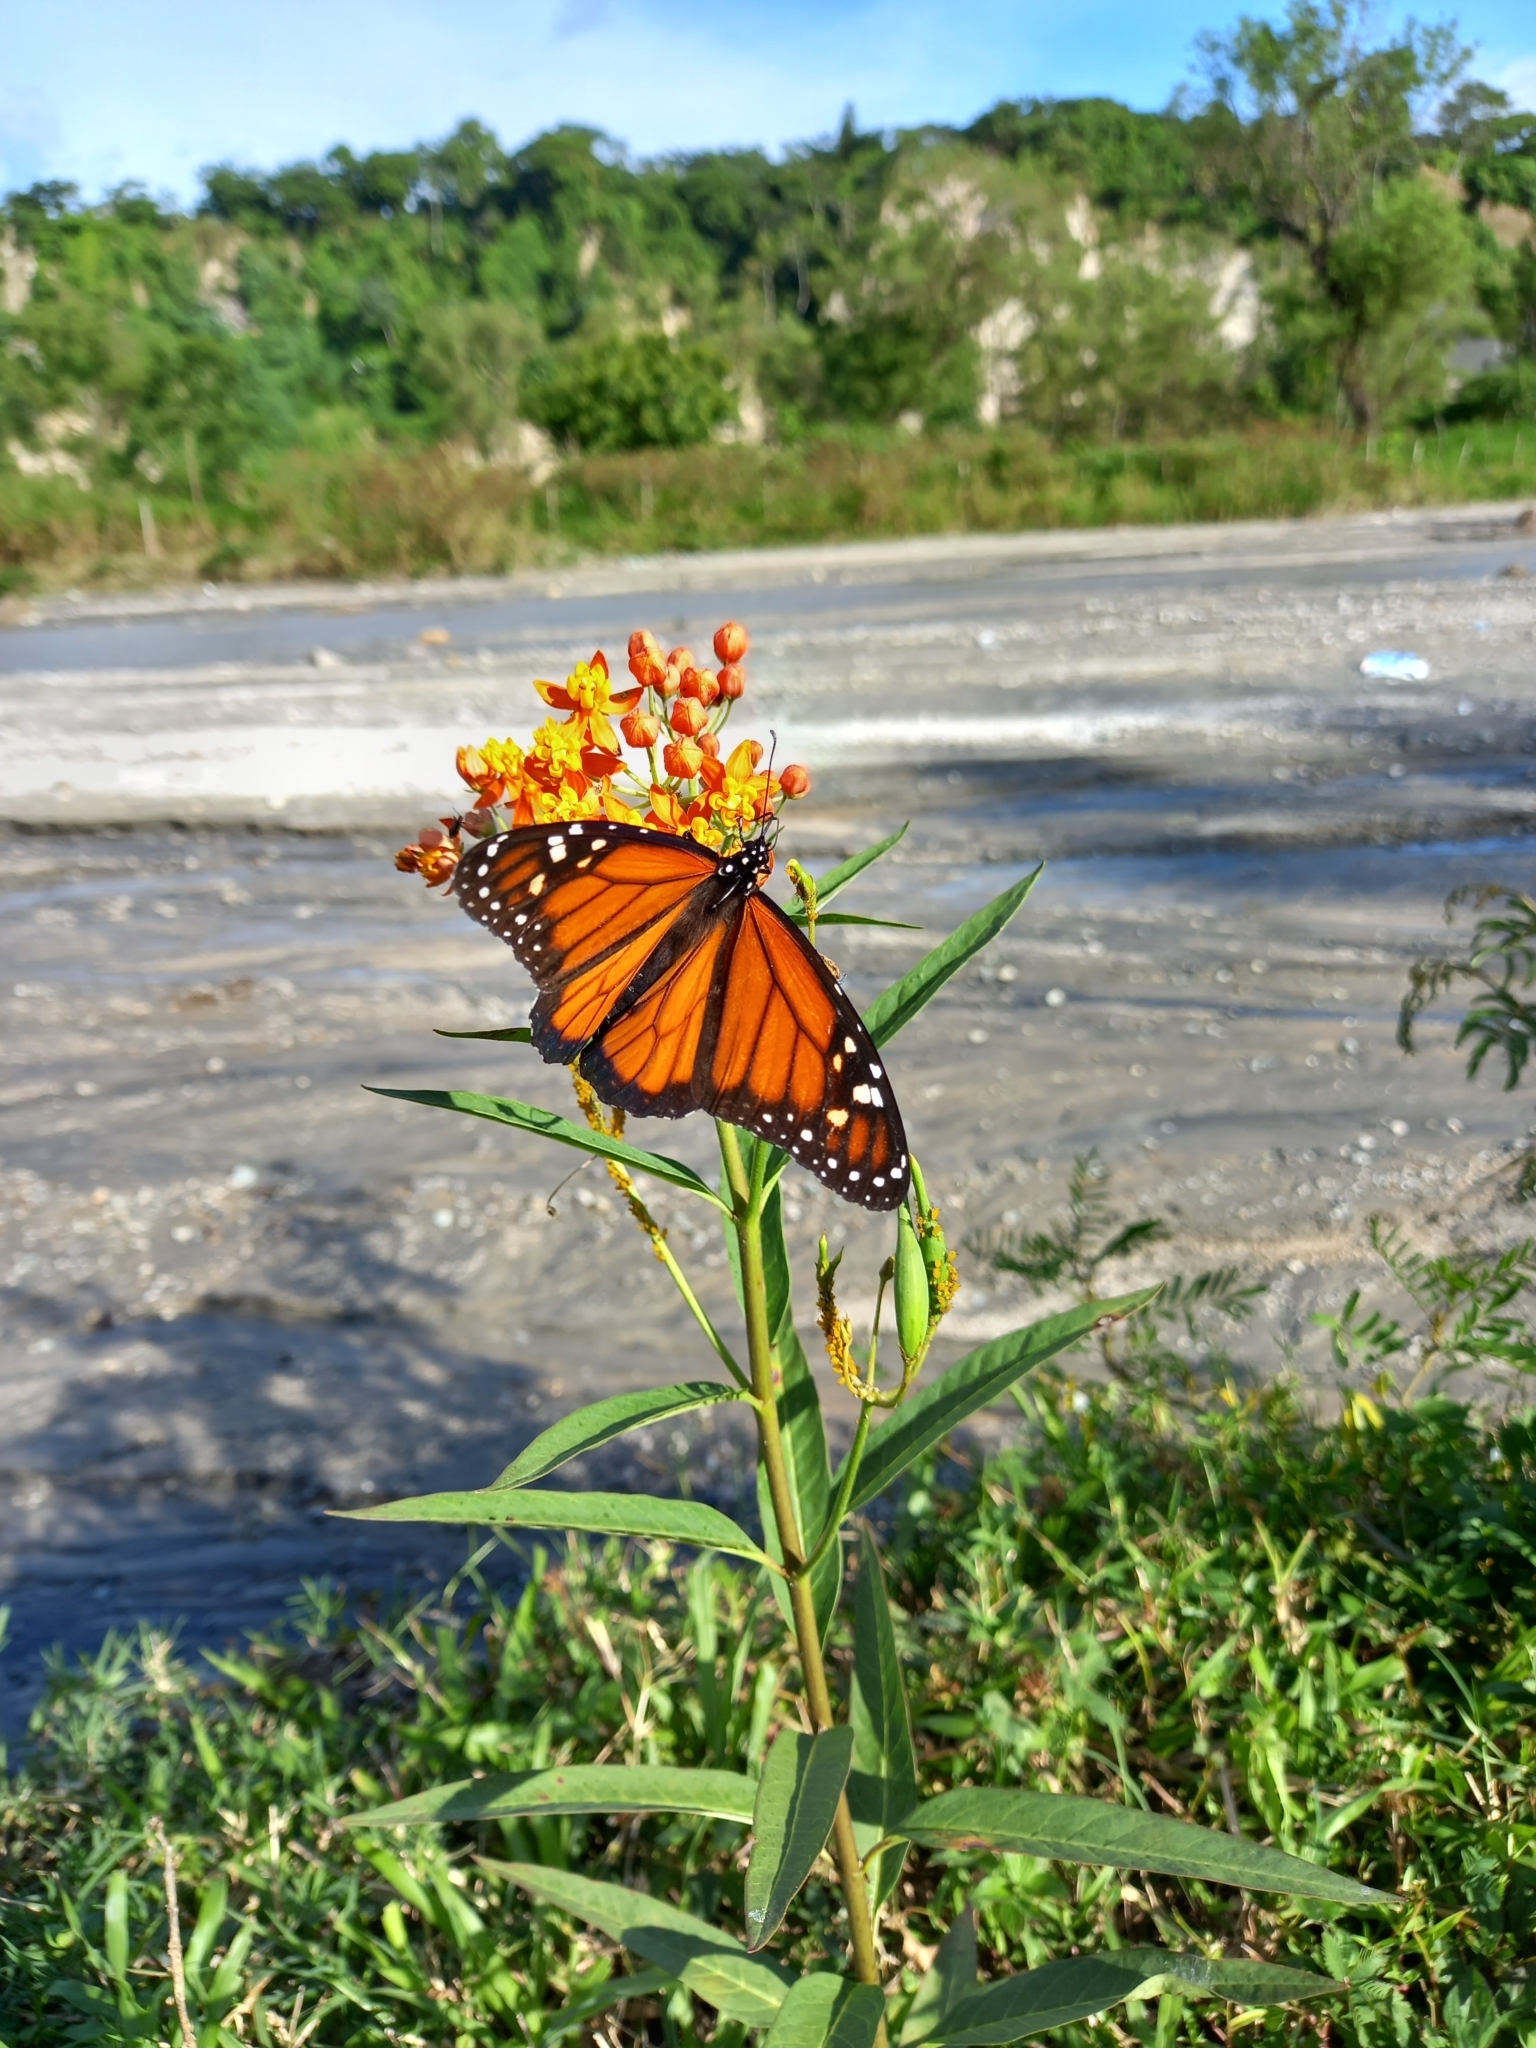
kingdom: Animalia
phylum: Arthropoda
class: Insecta
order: Lepidoptera
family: Nymphalidae
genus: Danaus
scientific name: Danaus plexippus
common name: Monarch
